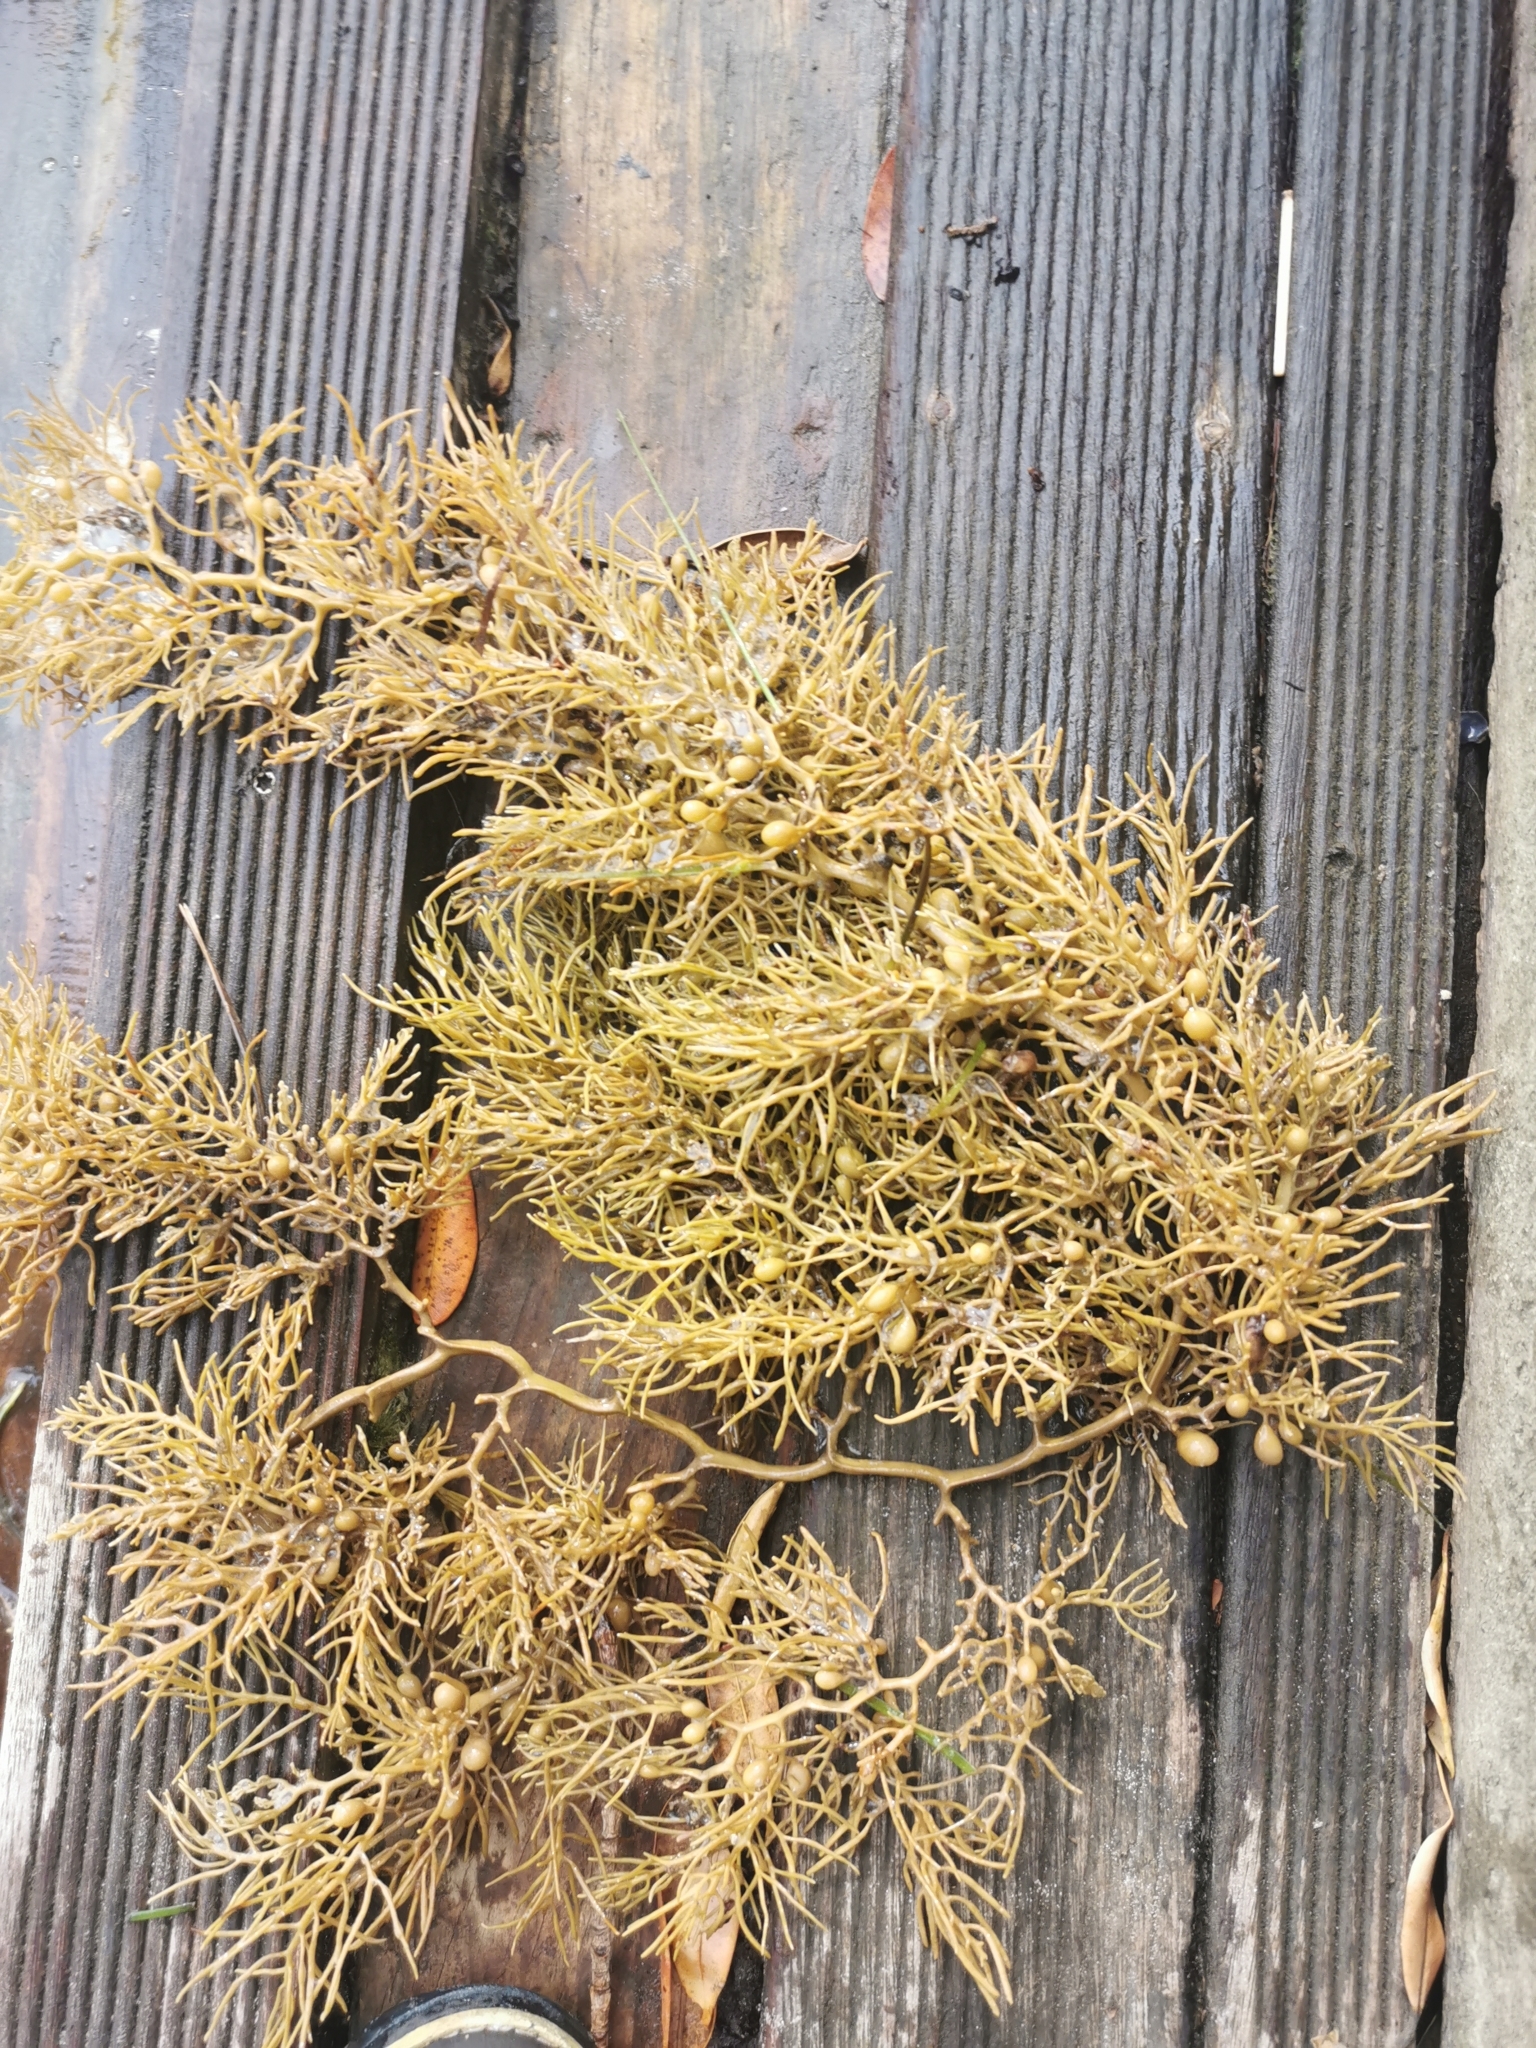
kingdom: Chromista
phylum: Ochrophyta
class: Phaeophyceae
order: Fucales
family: Sargassaceae
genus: Cystophora
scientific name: Cystophora retroflexa
